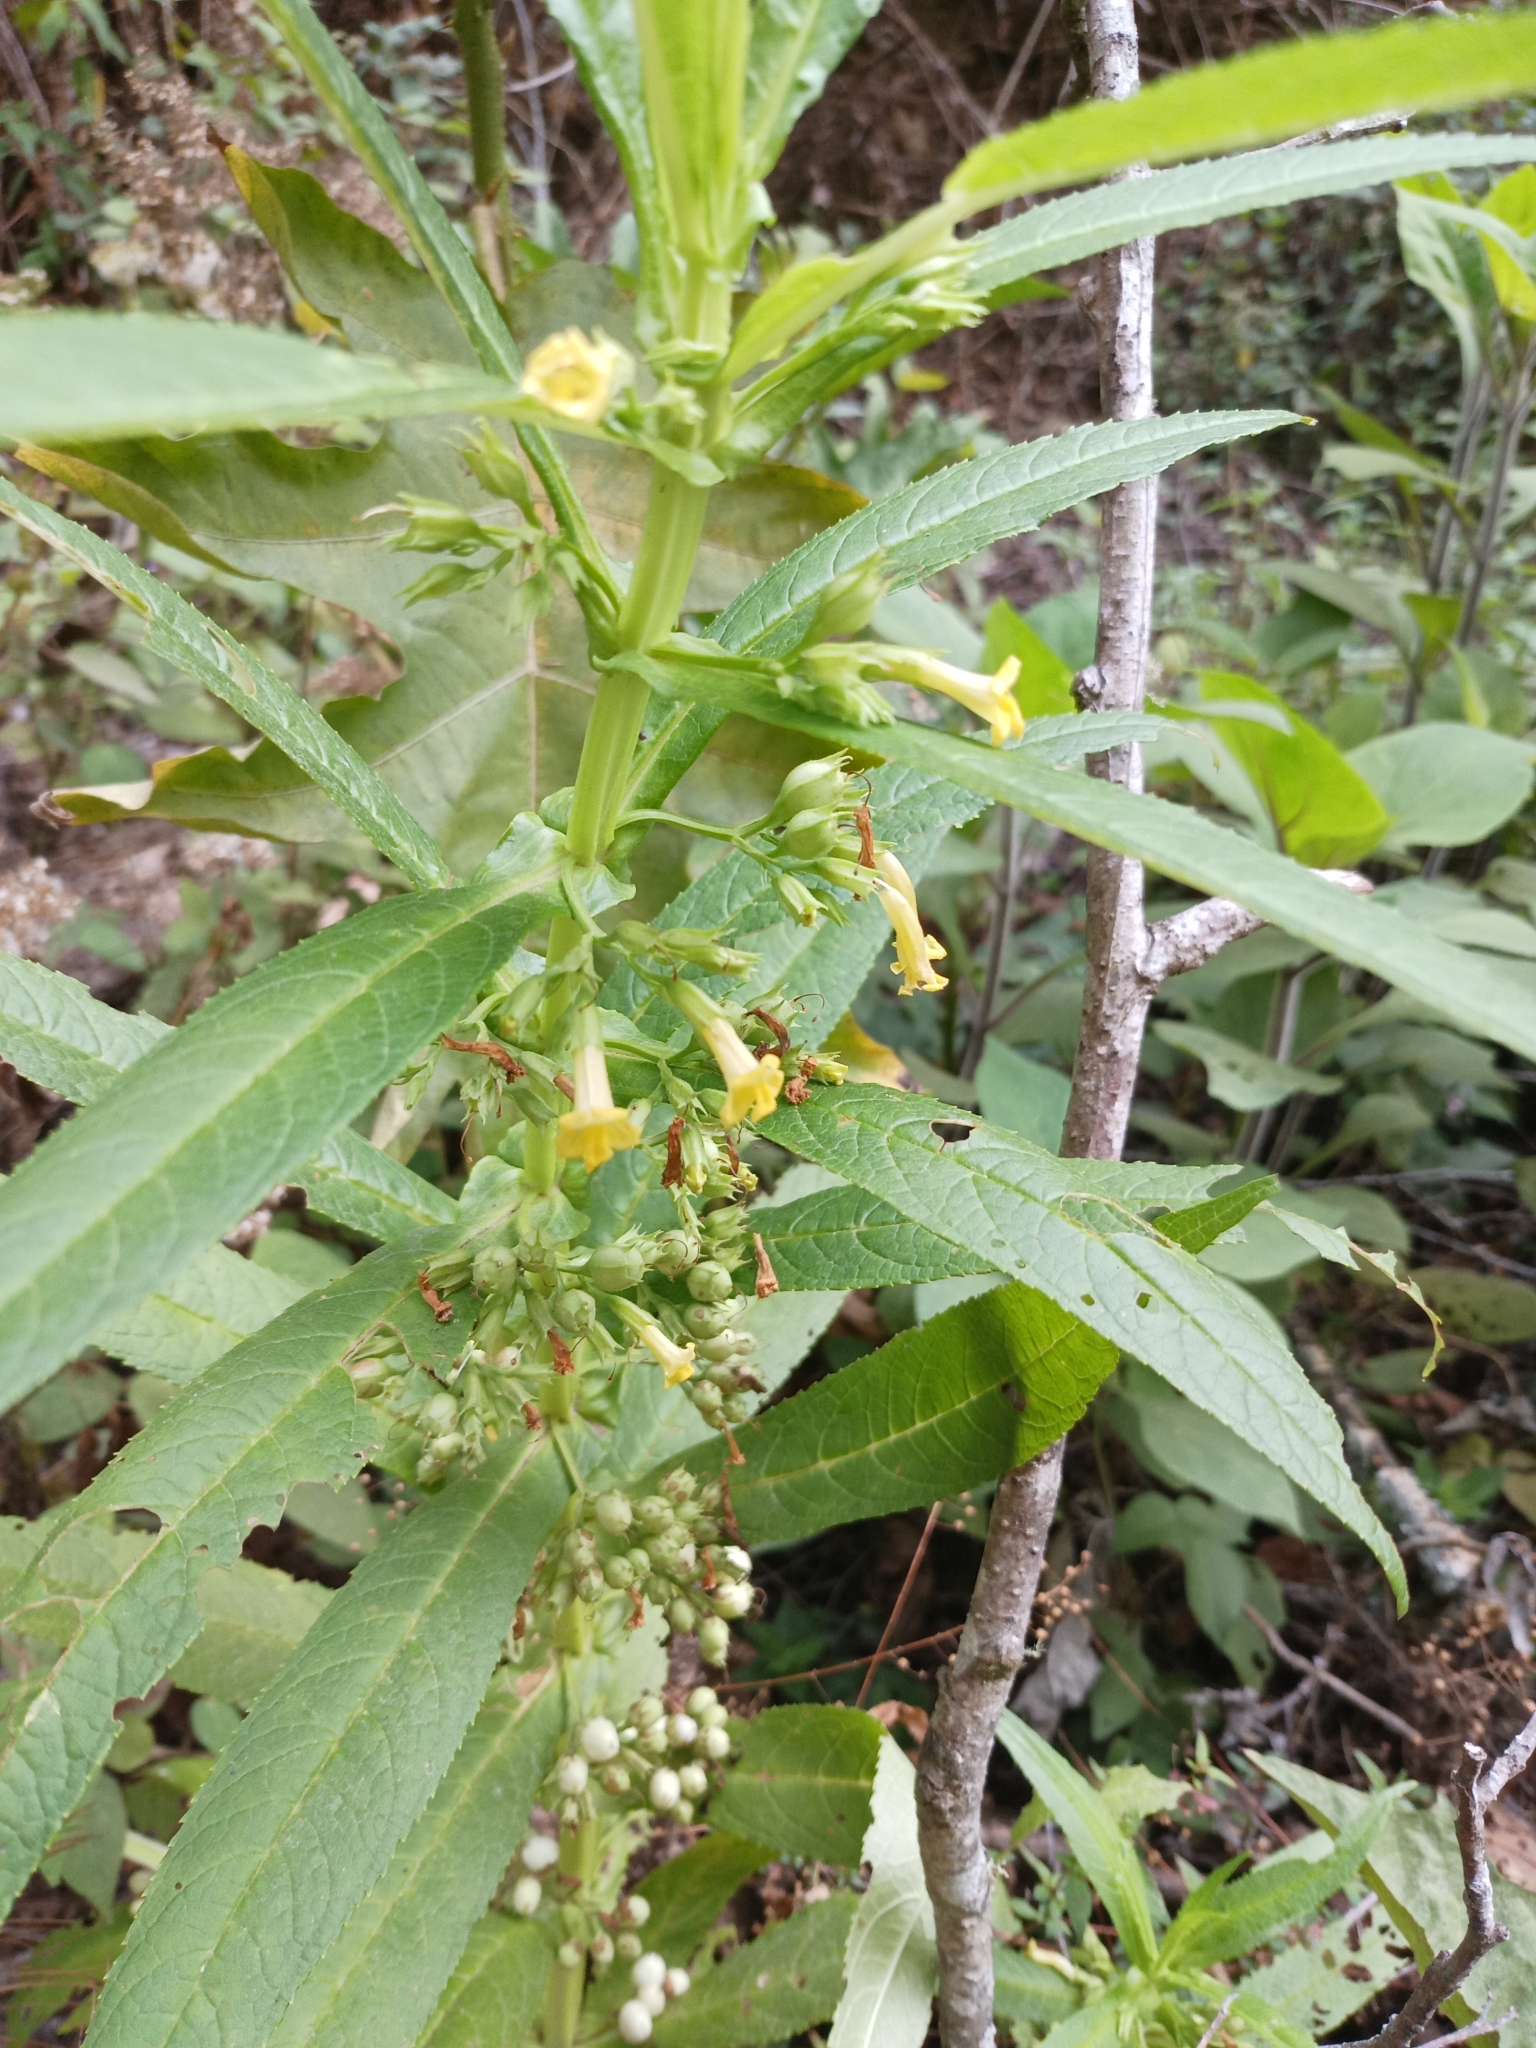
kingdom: Plantae
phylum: Tracheophyta
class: Magnoliopsida
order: Lamiales
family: Phrymaceae
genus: Leucocarpus
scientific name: Leucocarpus perfoliatus
